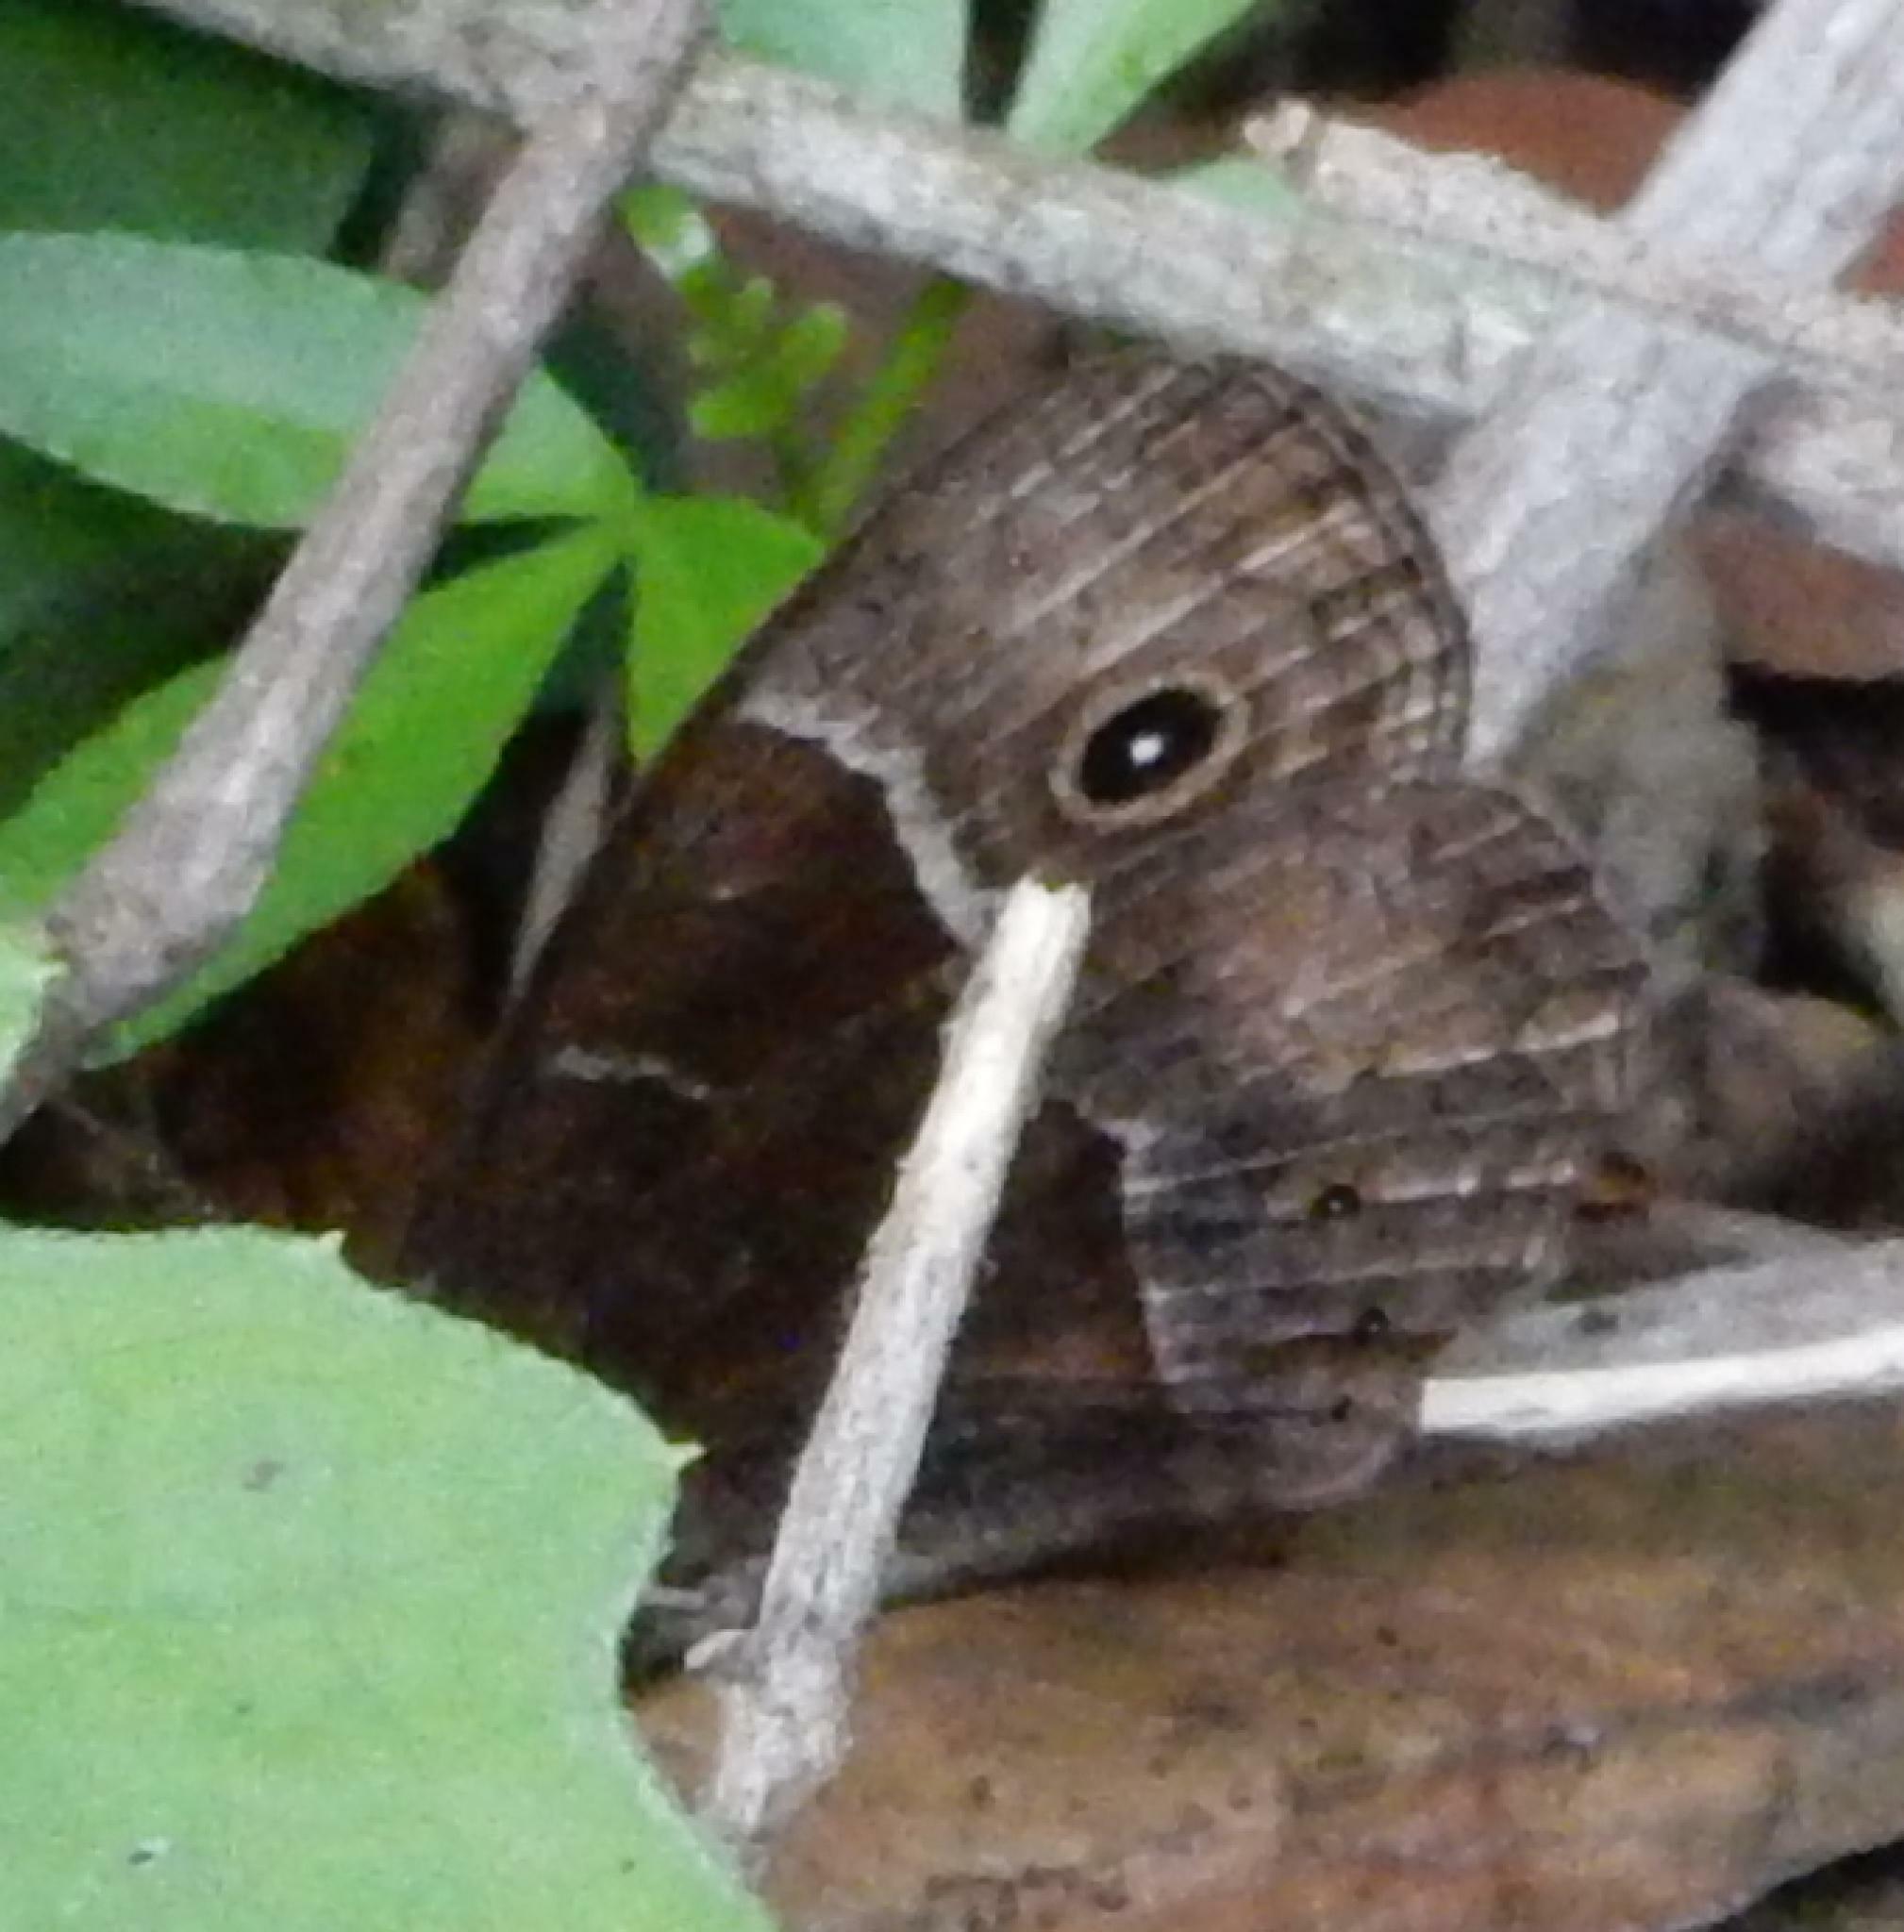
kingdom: Animalia
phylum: Arthropoda
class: Insecta
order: Lepidoptera
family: Nymphalidae
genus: Mycalesis
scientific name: Mycalesis rhacotis
